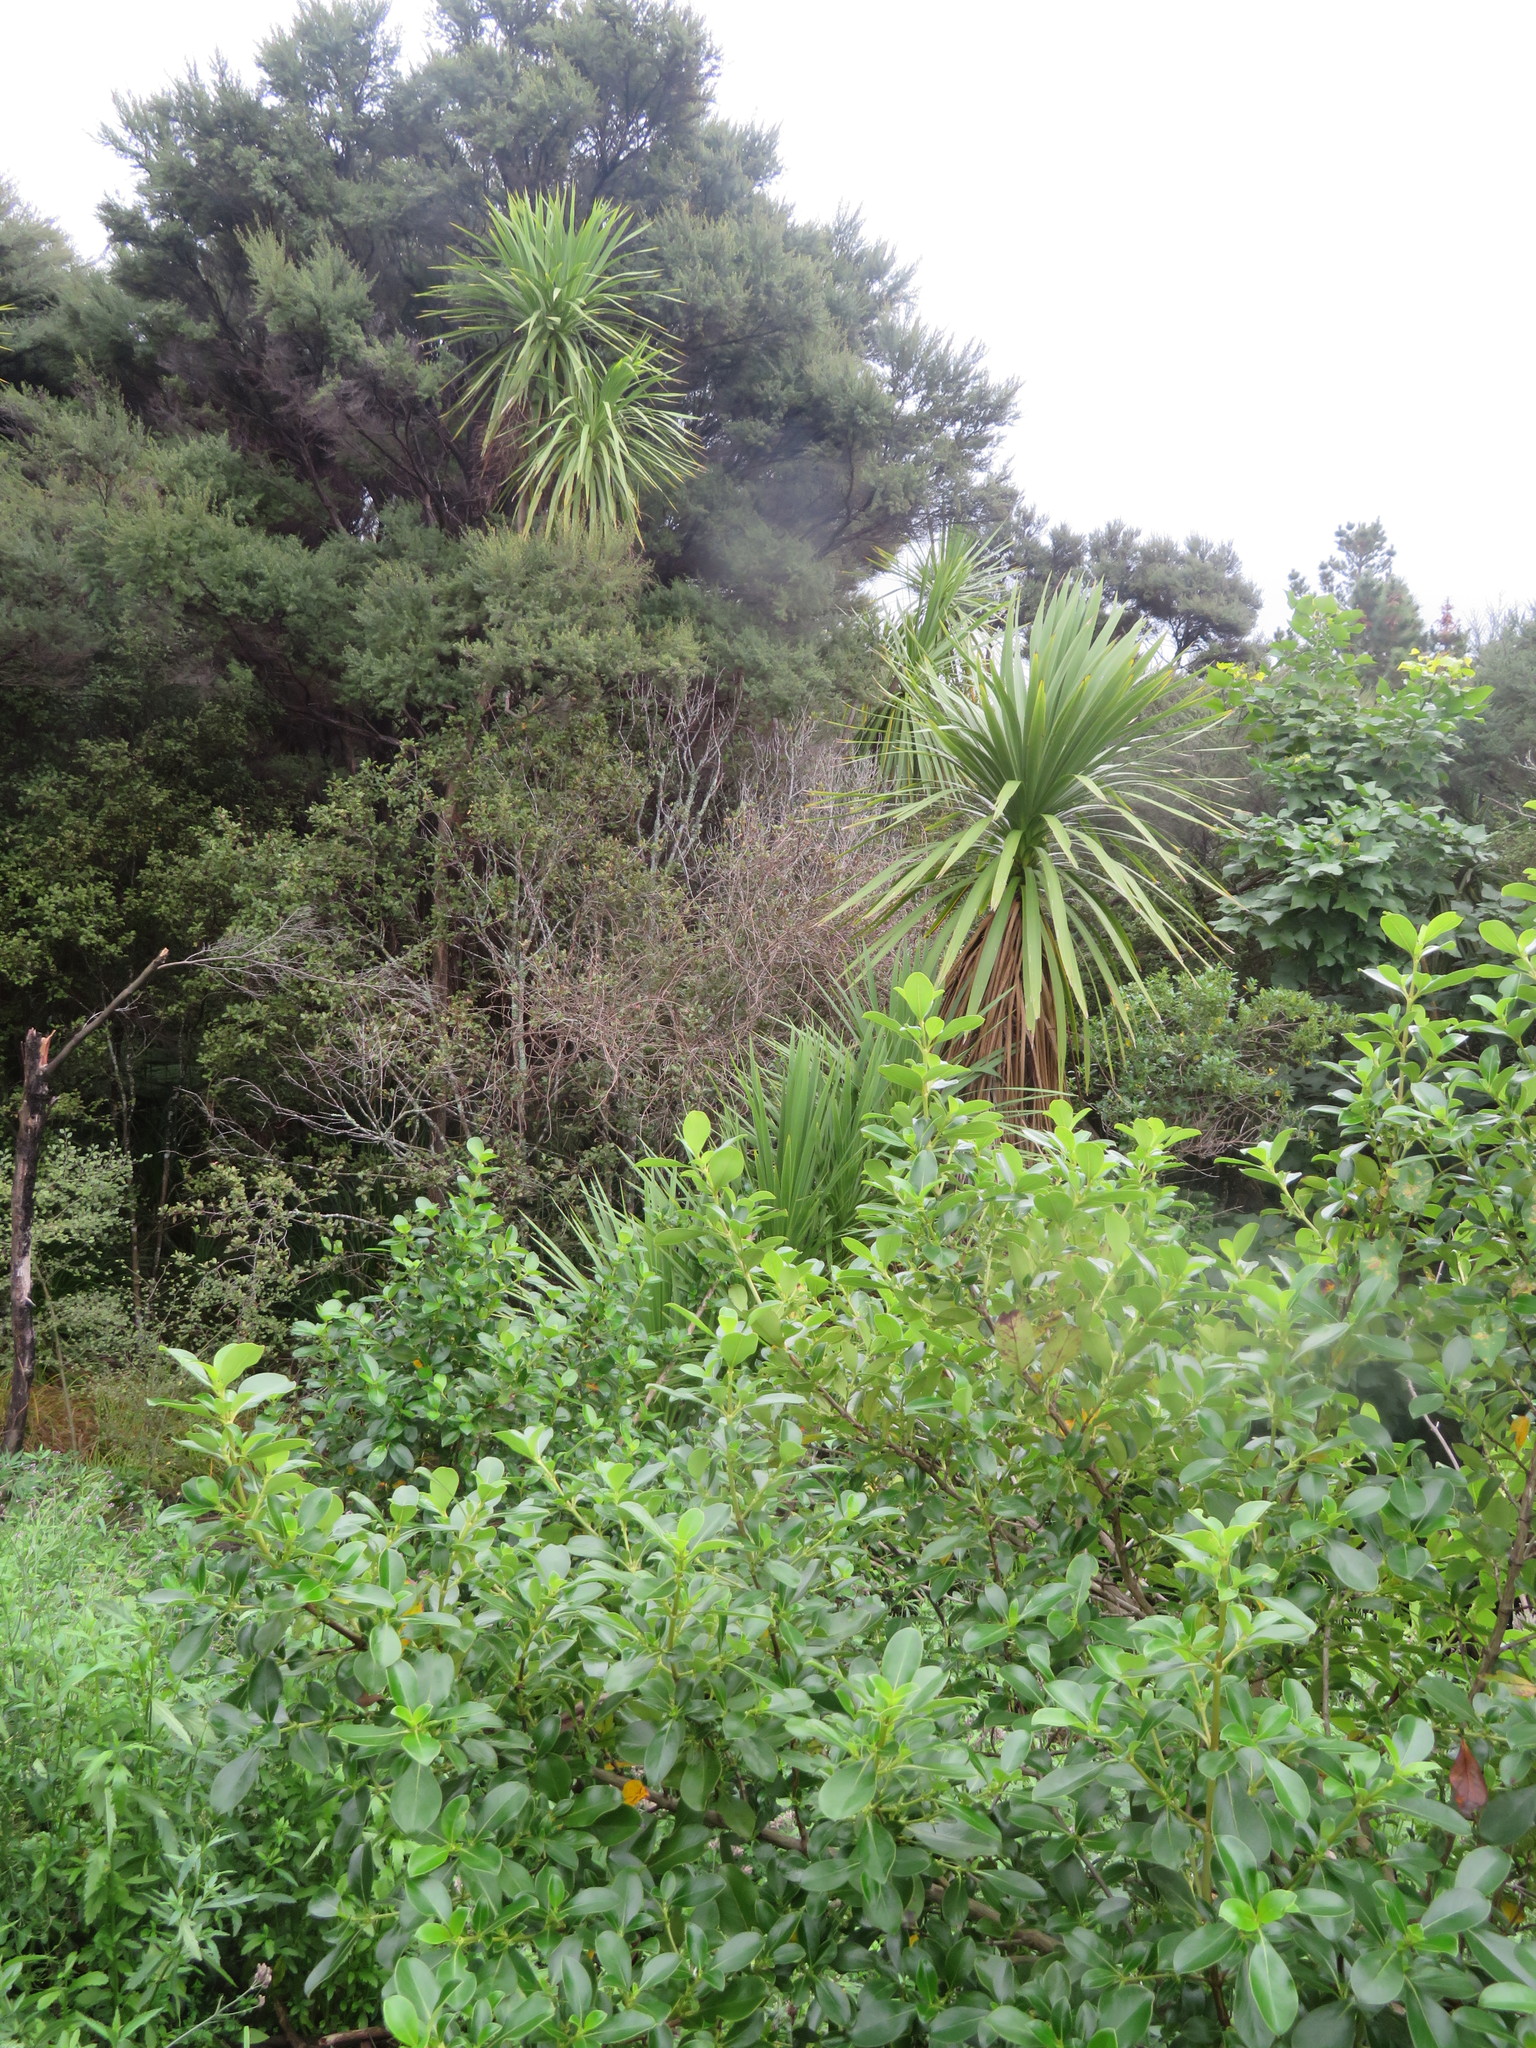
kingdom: Plantae
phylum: Tracheophyta
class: Liliopsida
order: Asparagales
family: Asparagaceae
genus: Cordyline
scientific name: Cordyline australis
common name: Cabbage-palm
